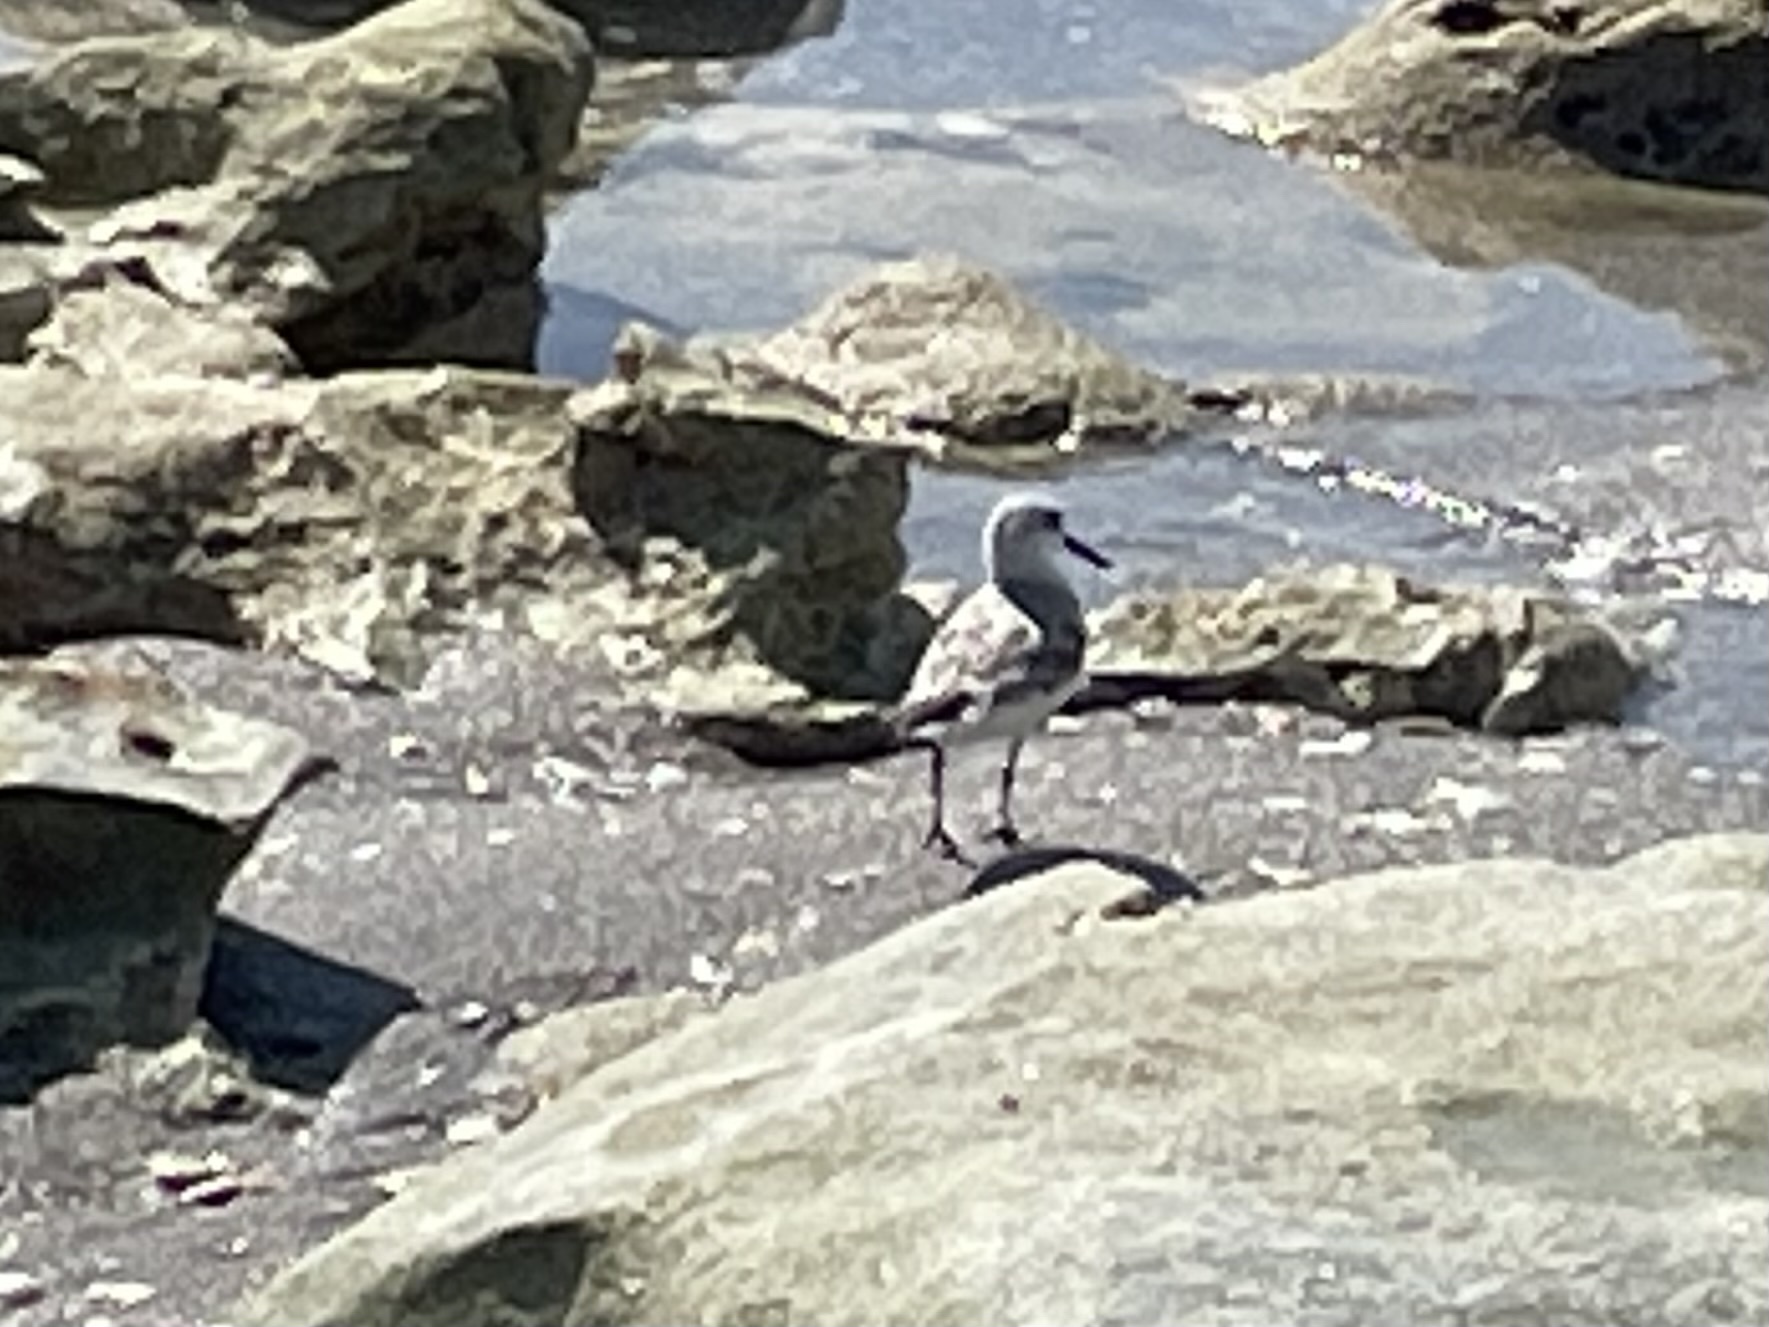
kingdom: Animalia
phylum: Chordata
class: Aves
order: Charadriiformes
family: Scolopacidae
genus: Calidris
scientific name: Calidris alba
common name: Sanderling
